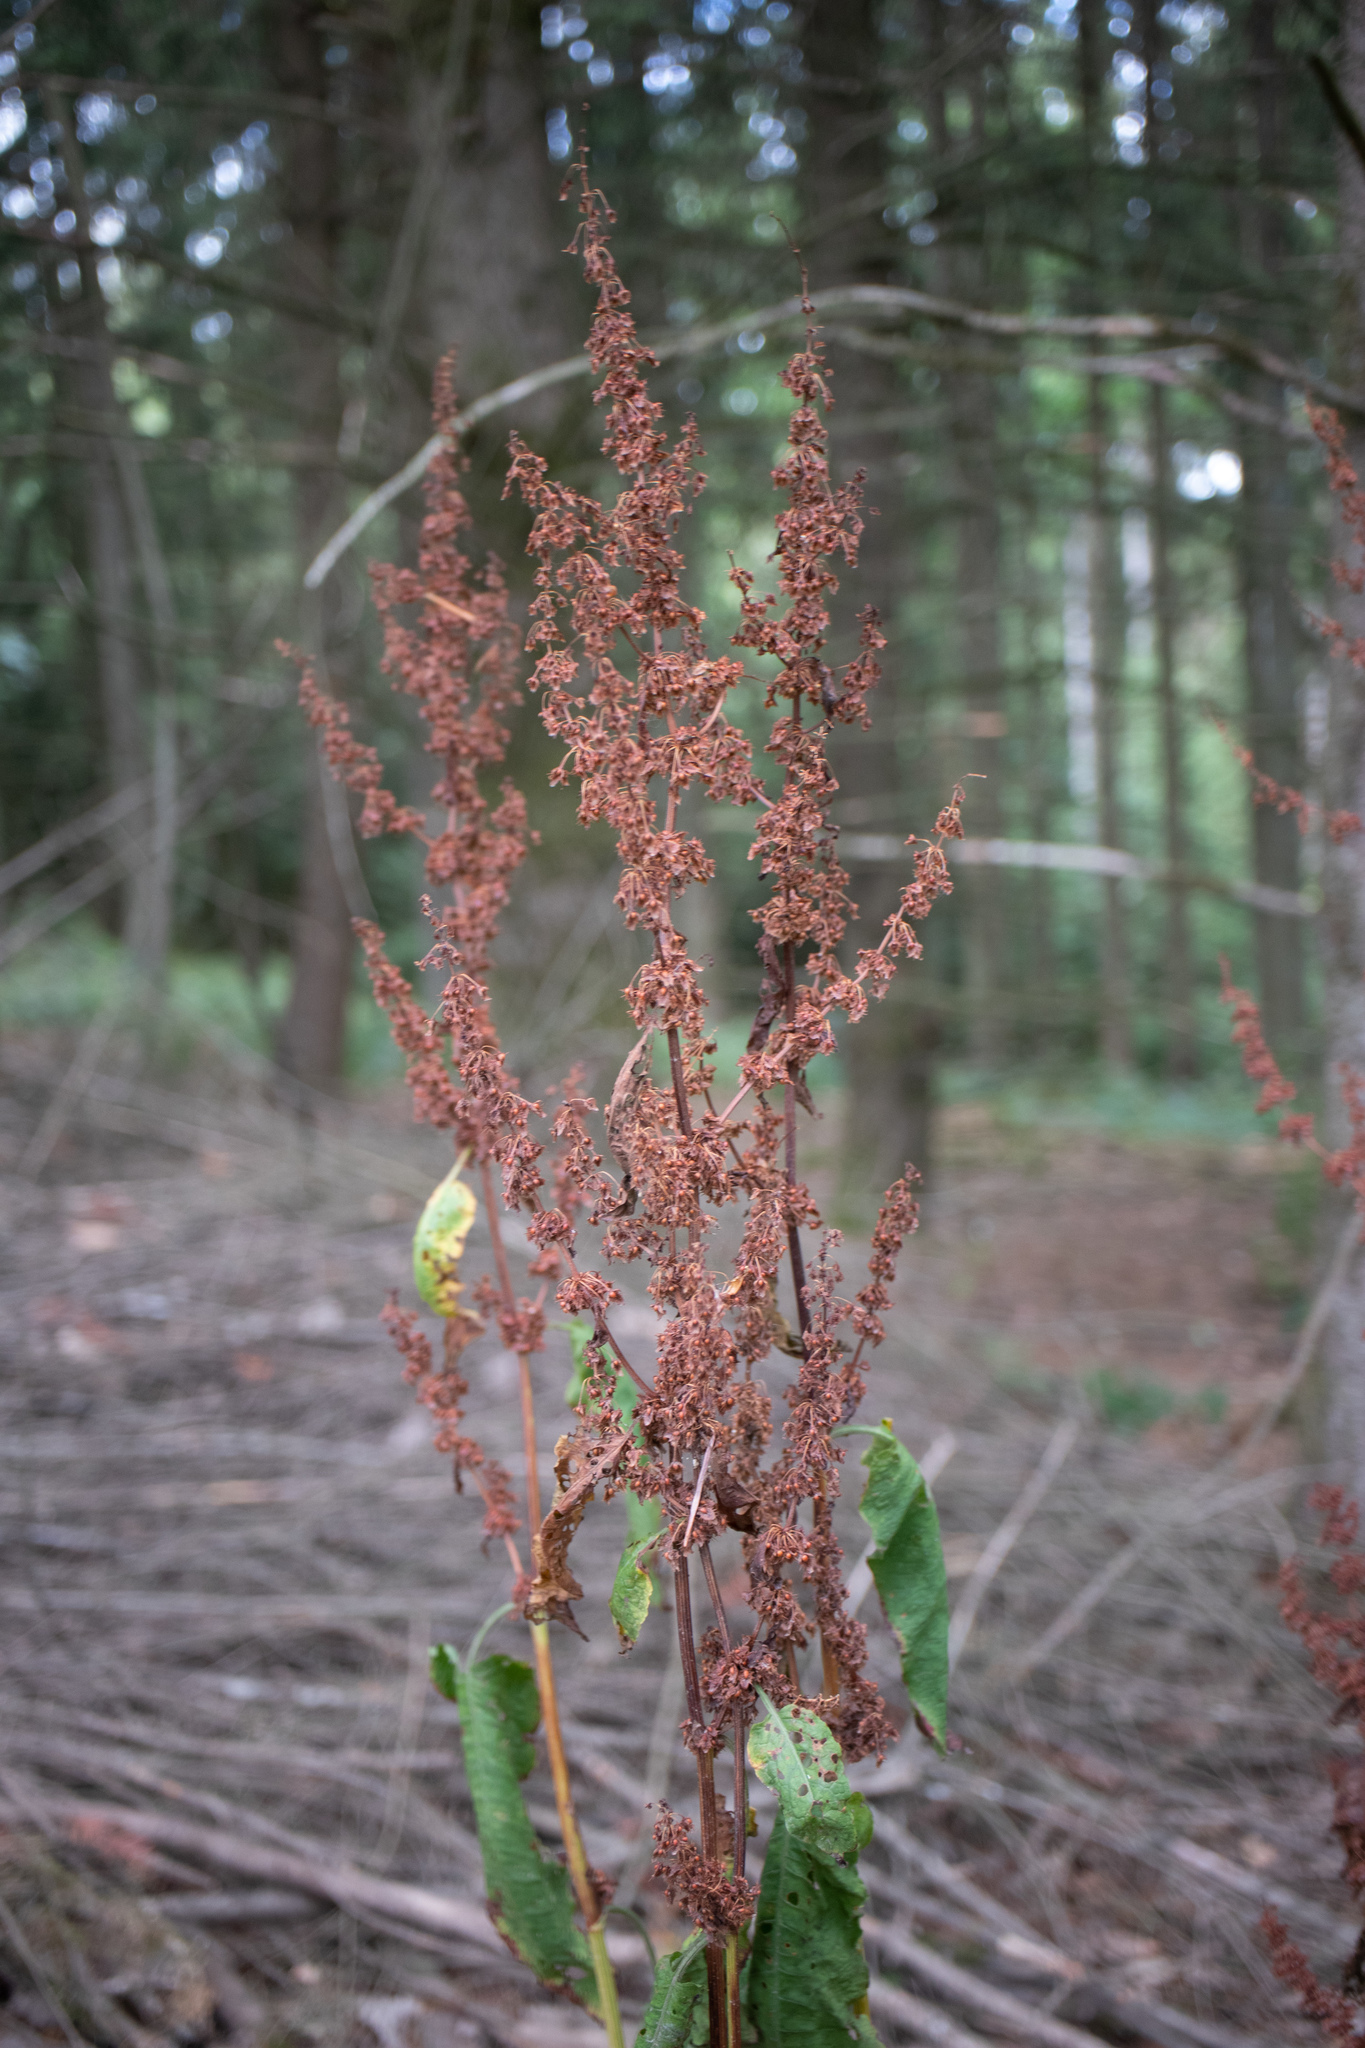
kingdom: Plantae
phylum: Tracheophyta
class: Magnoliopsida
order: Caryophyllales
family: Polygonaceae
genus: Rumex
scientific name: Rumex obtusifolius
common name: Bitter dock
